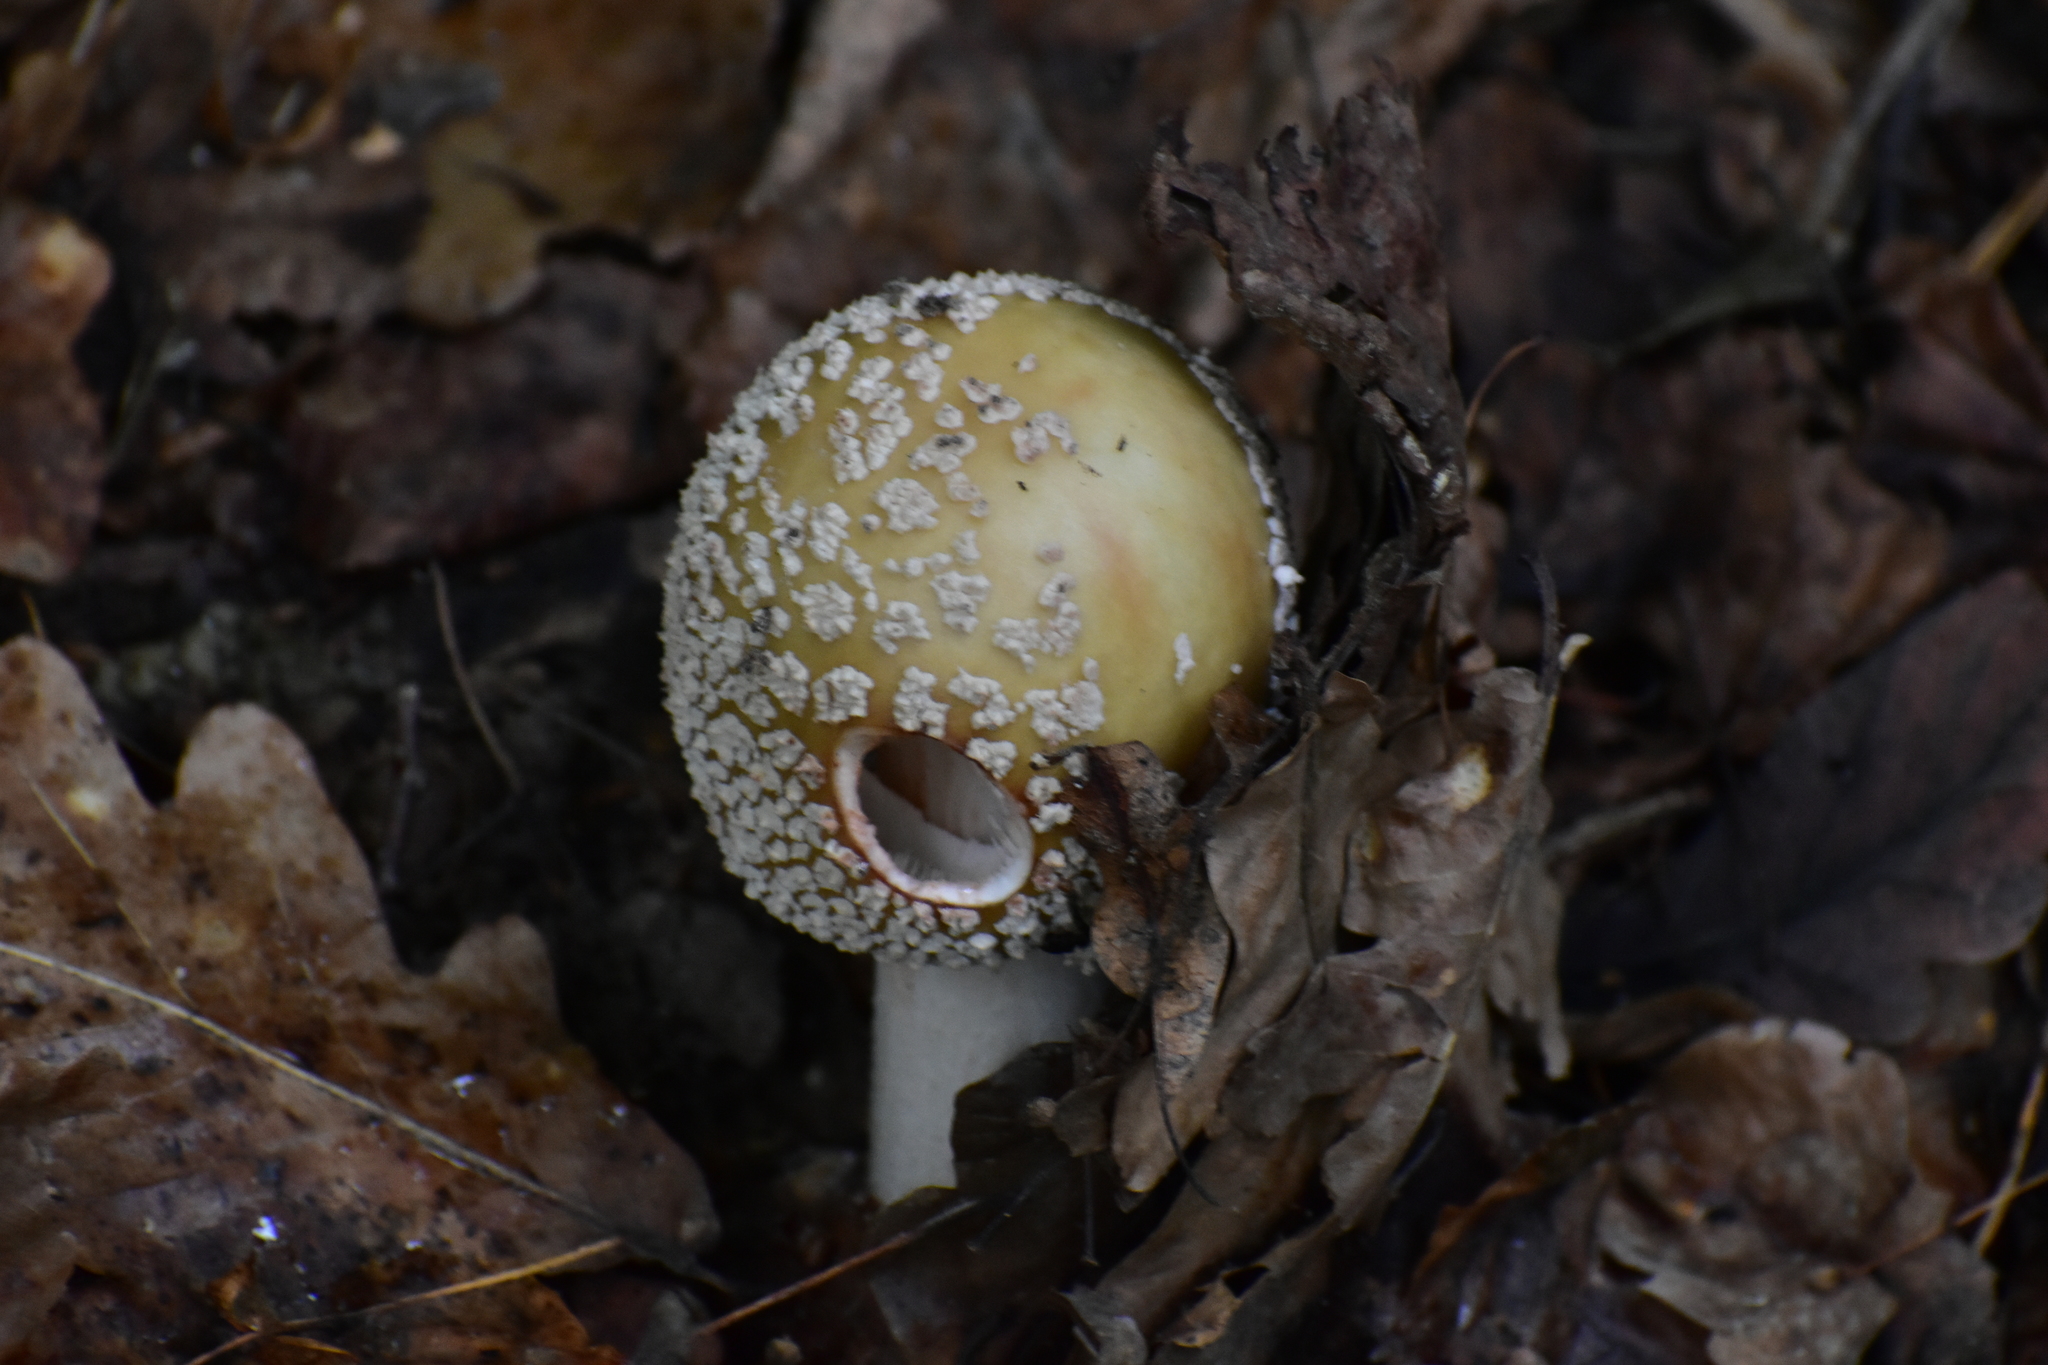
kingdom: Fungi
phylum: Basidiomycota
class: Agaricomycetes
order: Agaricales
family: Amanitaceae
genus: Amanita
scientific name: Amanita rubescens
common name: Blusher
